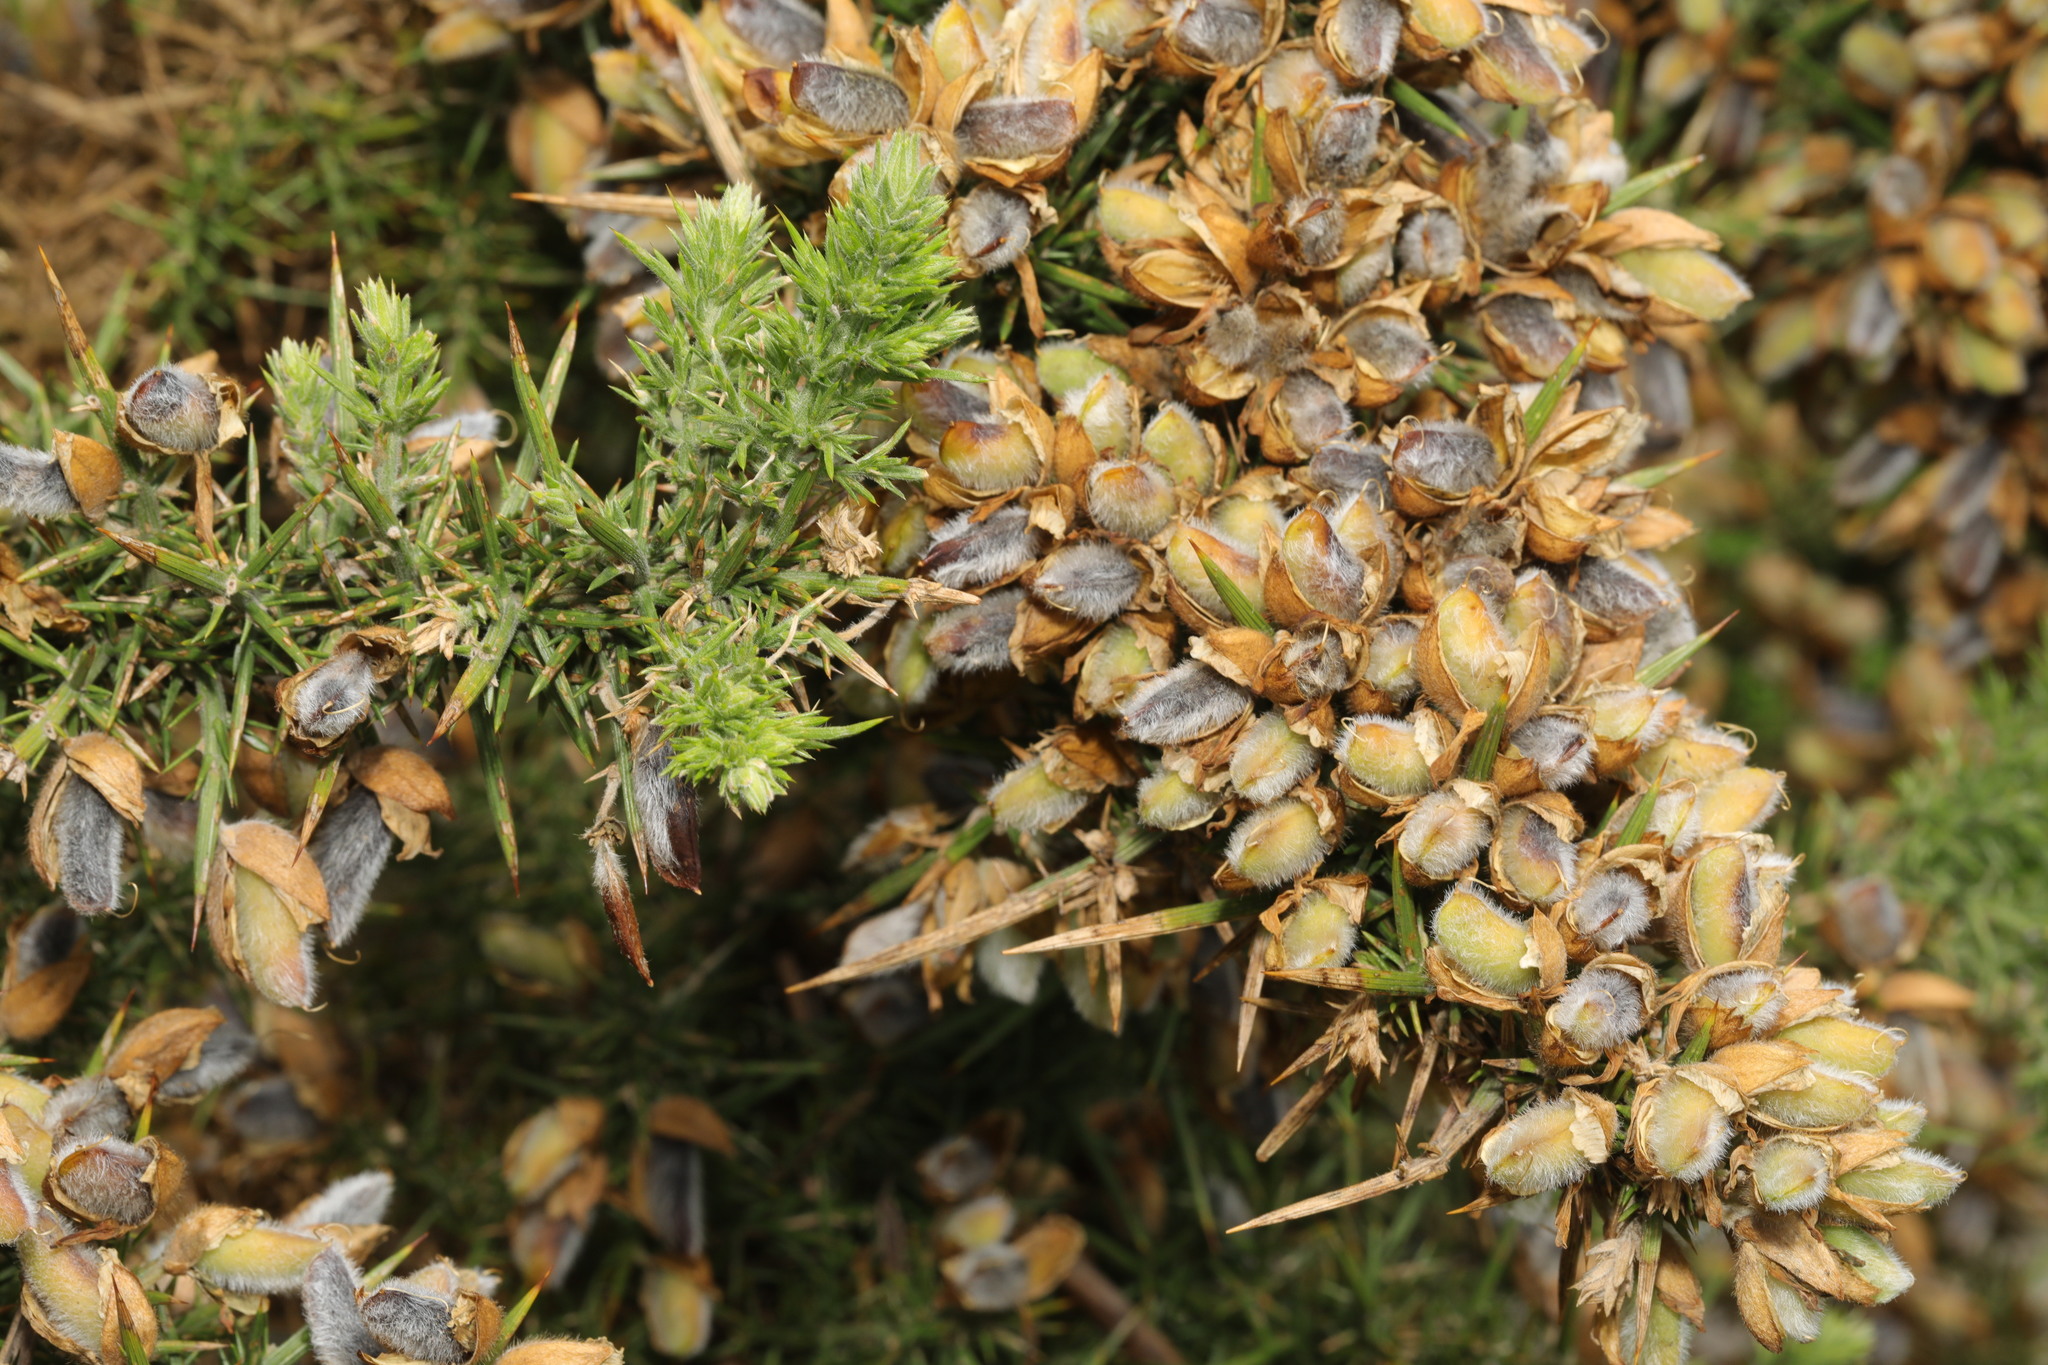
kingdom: Plantae
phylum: Tracheophyta
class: Magnoliopsida
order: Fabales
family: Fabaceae
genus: Ulex
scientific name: Ulex europaeus
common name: Common gorse
